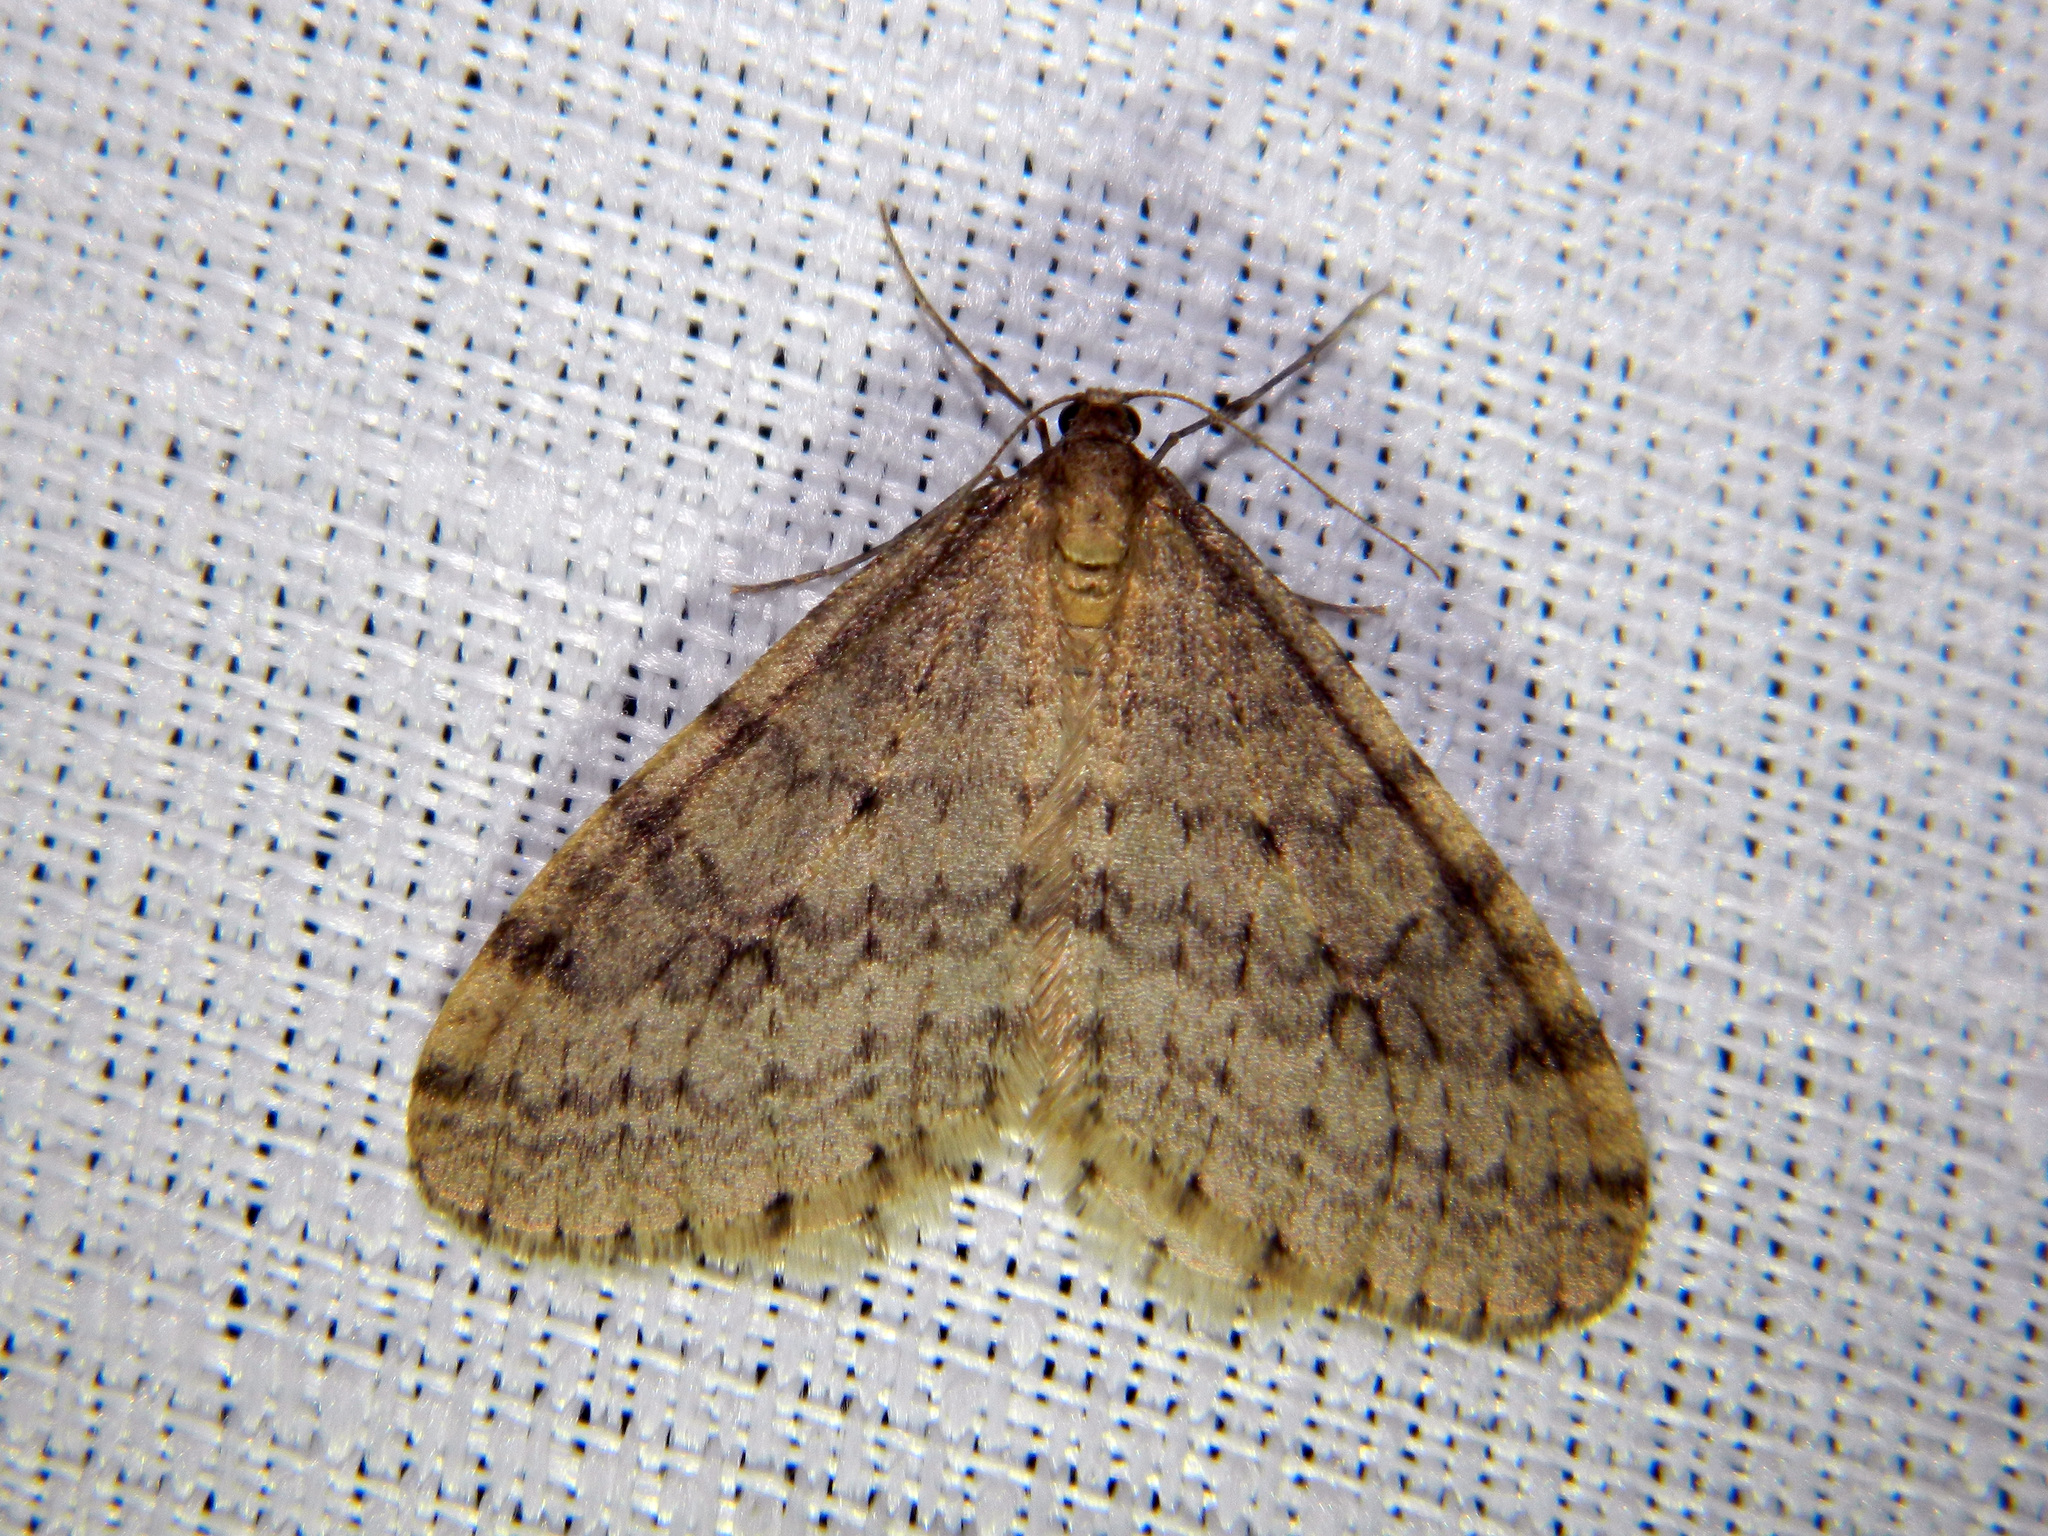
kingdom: Animalia
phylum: Arthropoda
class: Insecta
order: Lepidoptera
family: Geometridae
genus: Operophtera
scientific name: Operophtera bruceata
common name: Bruce spanworm
